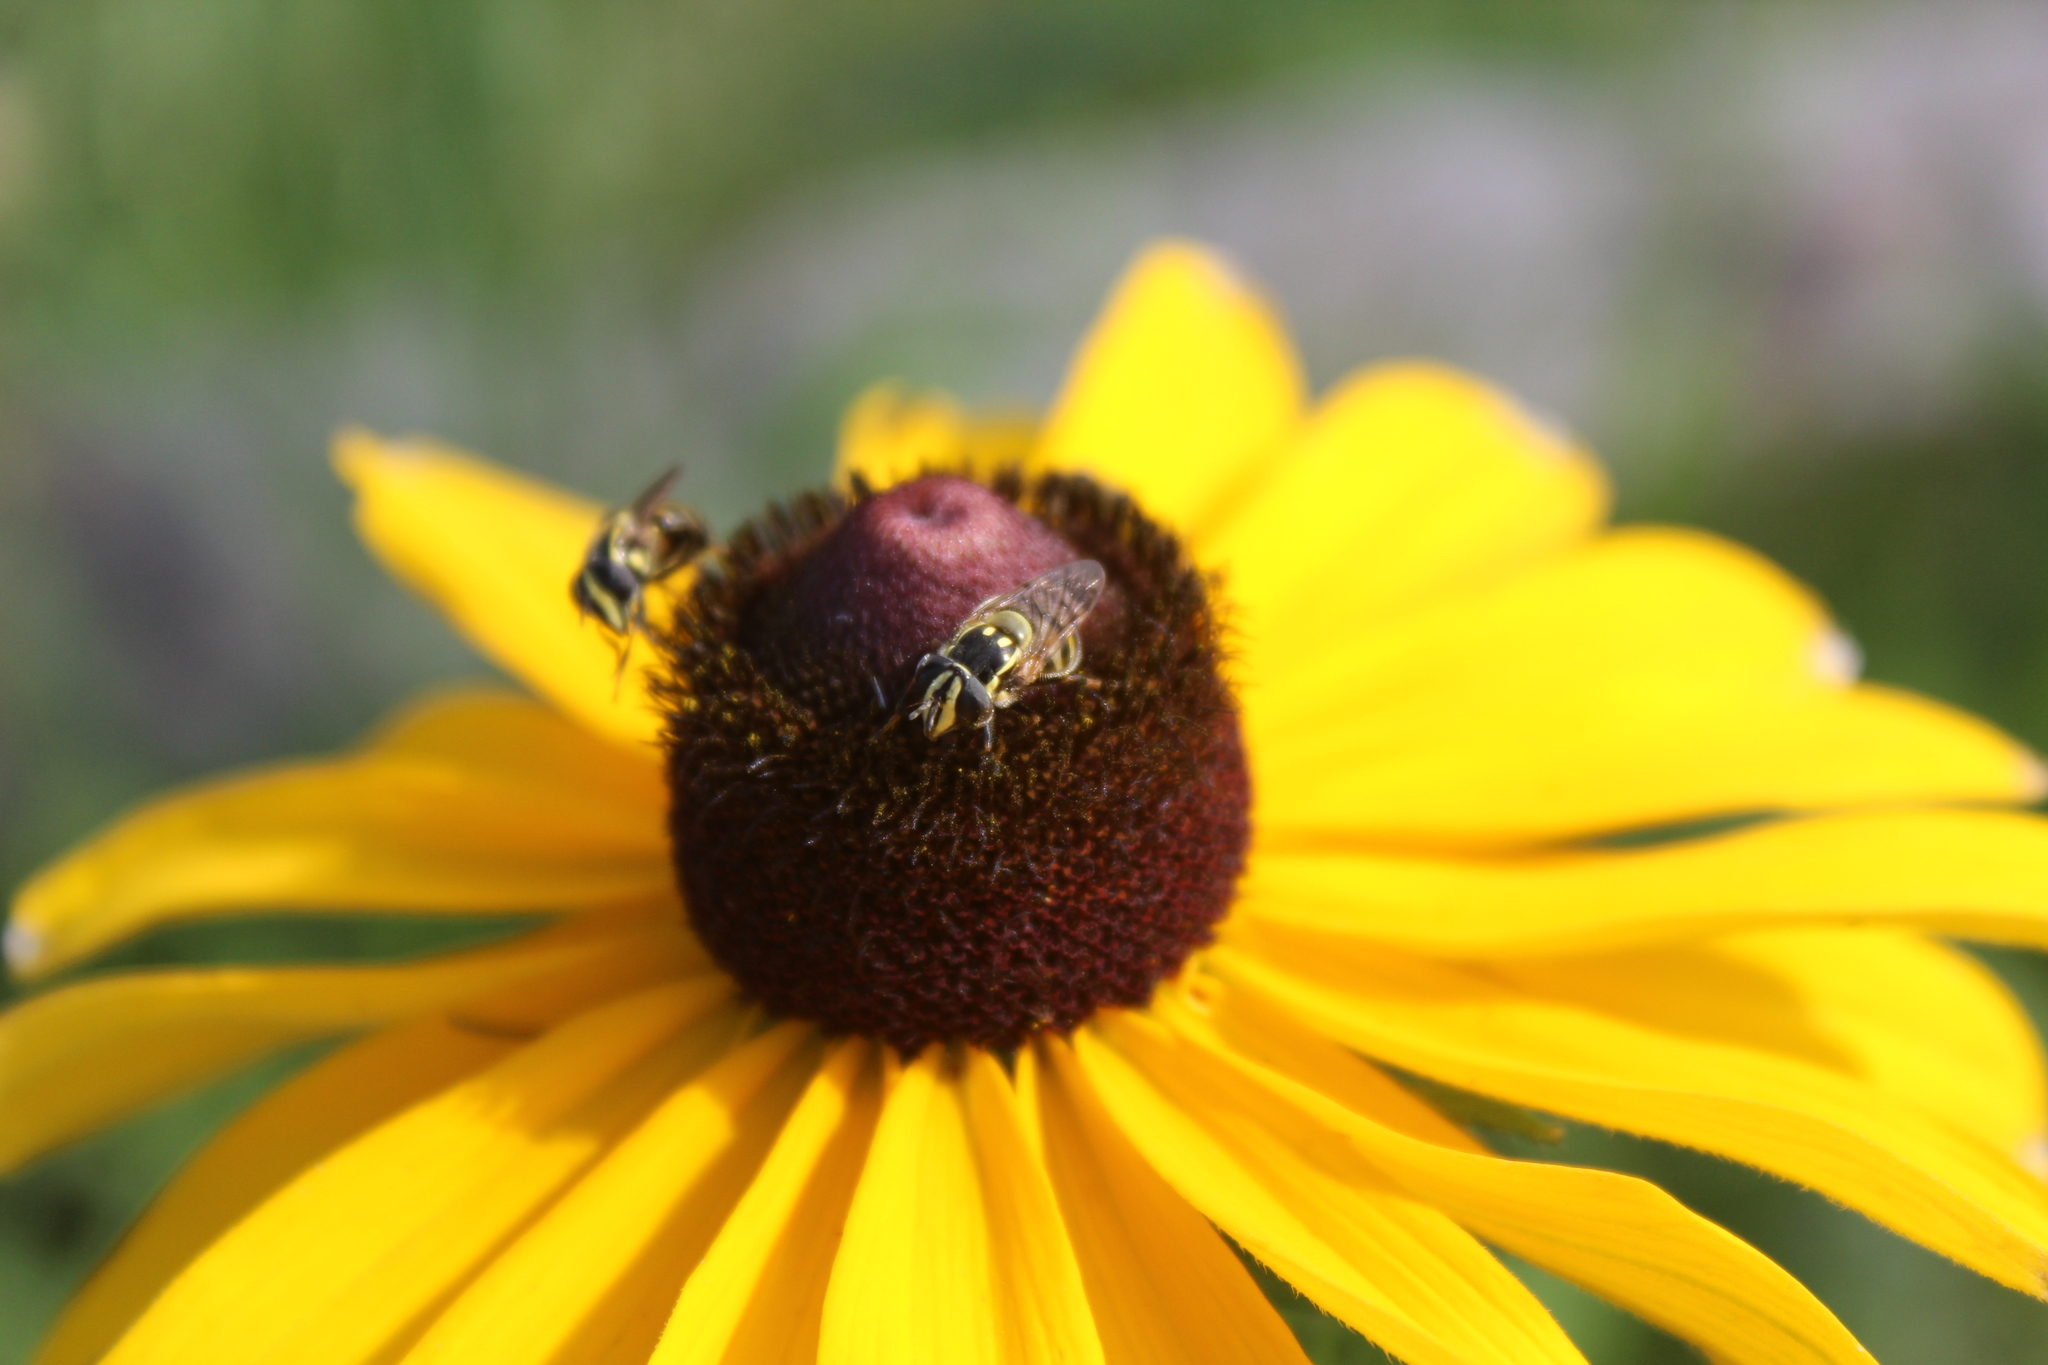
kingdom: Animalia
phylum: Arthropoda
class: Insecta
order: Diptera
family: Syrphidae
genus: Copestylum
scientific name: Copestylum vittatum
